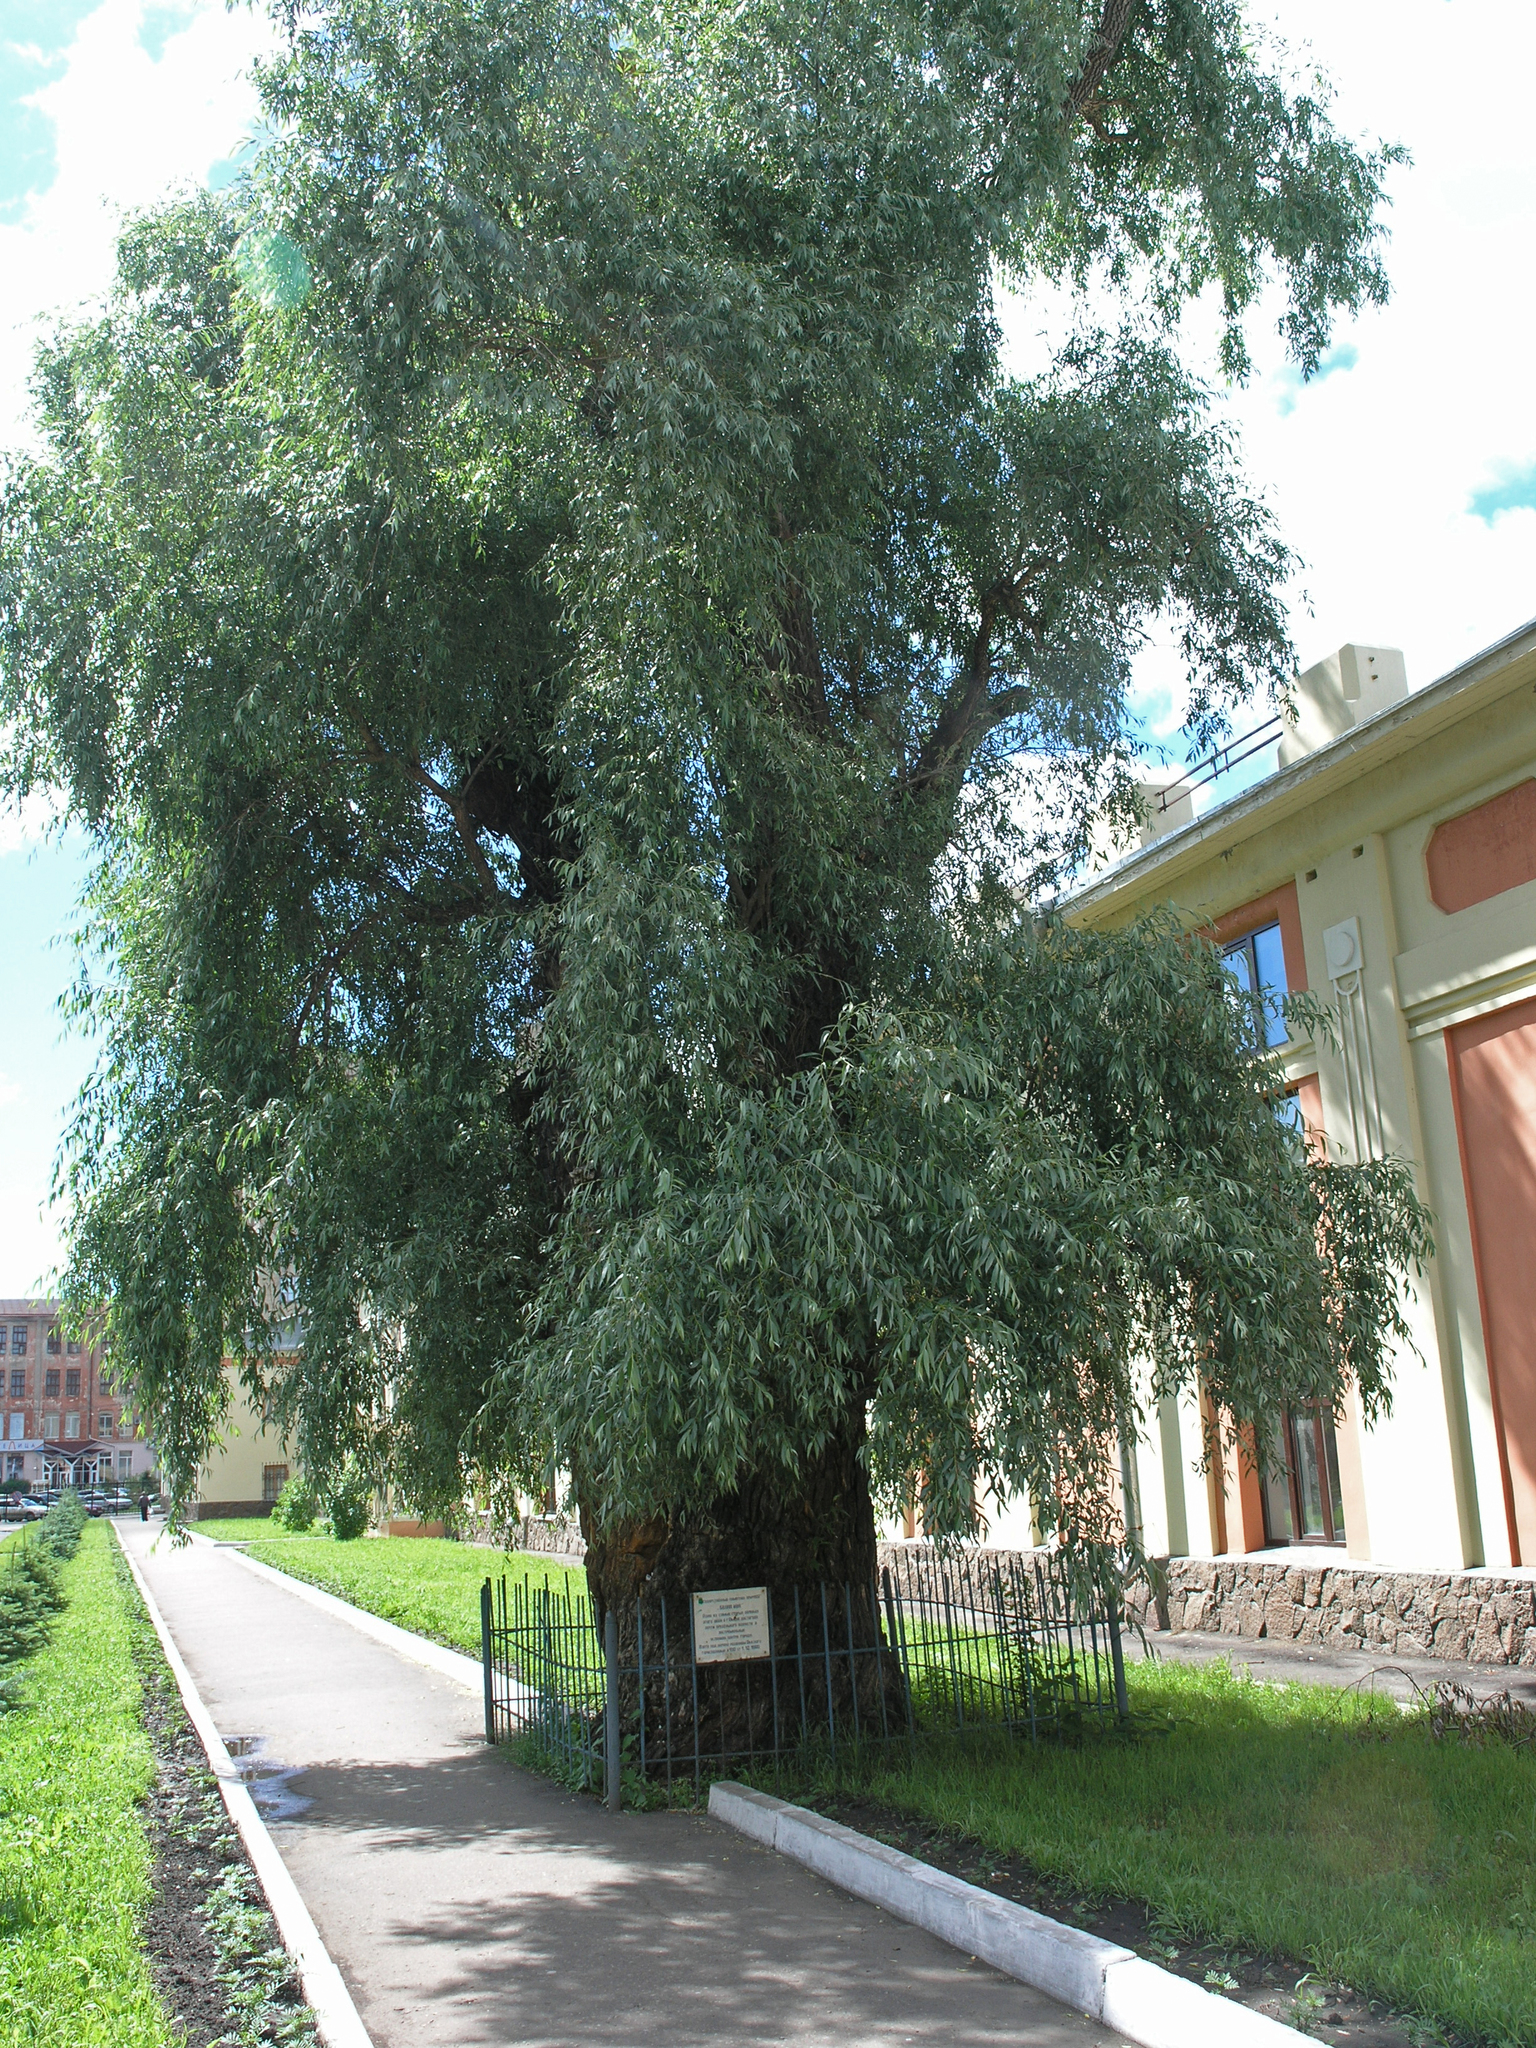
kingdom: Plantae
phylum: Tracheophyta
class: Magnoliopsida
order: Malpighiales
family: Salicaceae
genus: Salix
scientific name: Salix alba
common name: White willow
